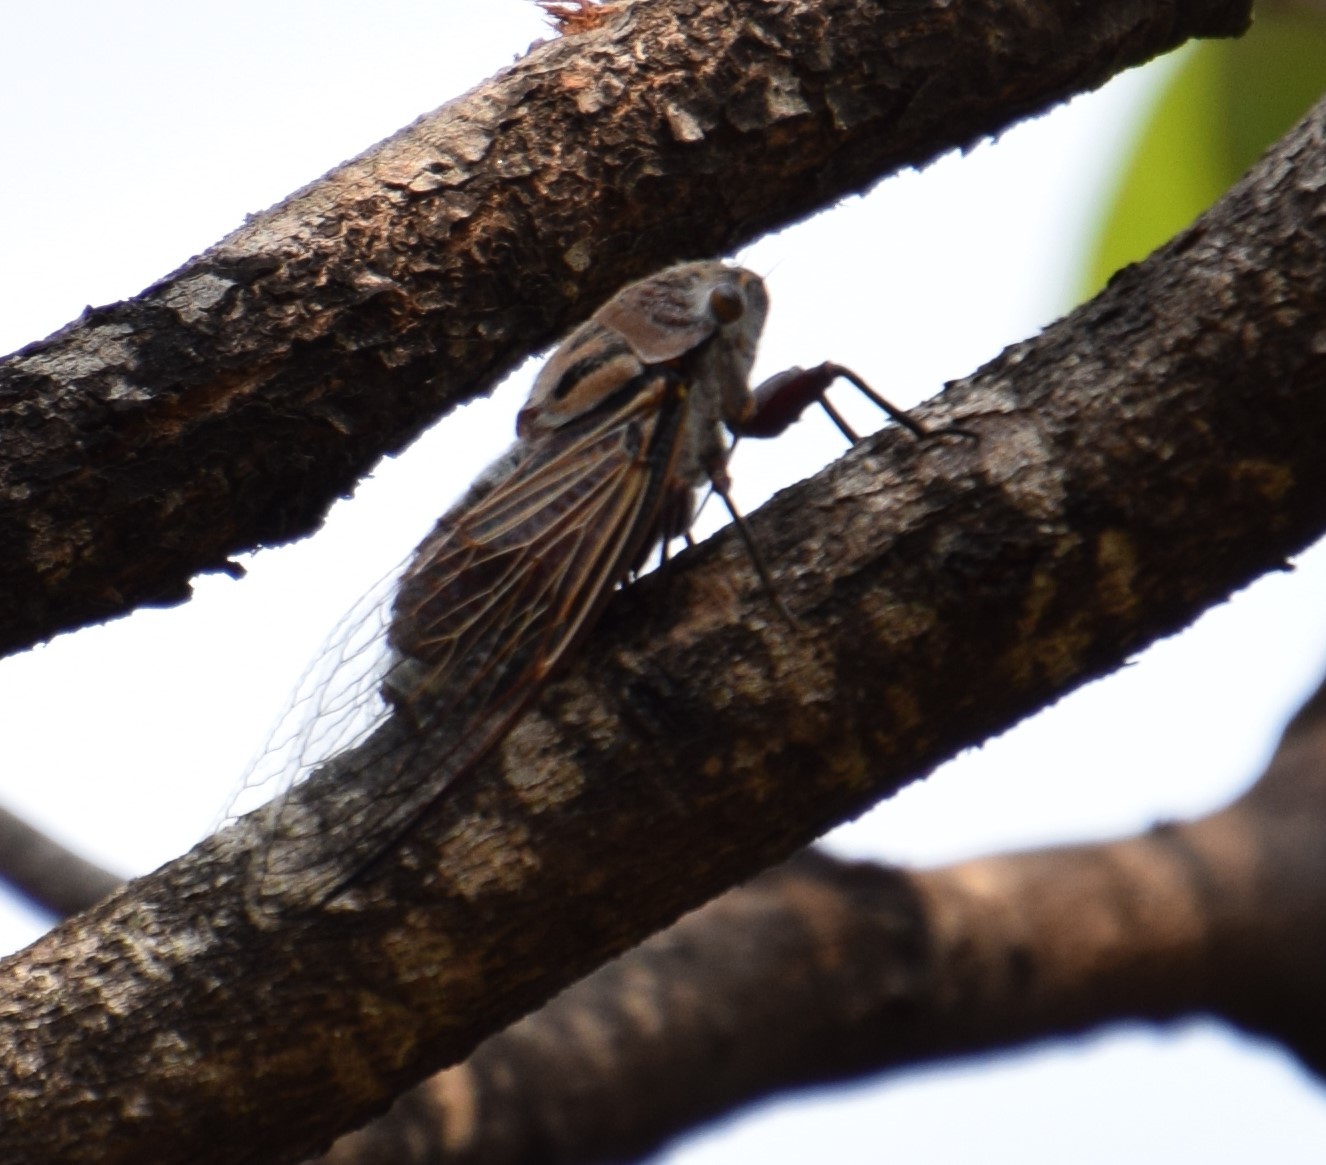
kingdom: Animalia
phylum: Arthropoda
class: Insecta
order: Hemiptera
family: Cicadidae
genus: Thopha
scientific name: Thopha saccata
